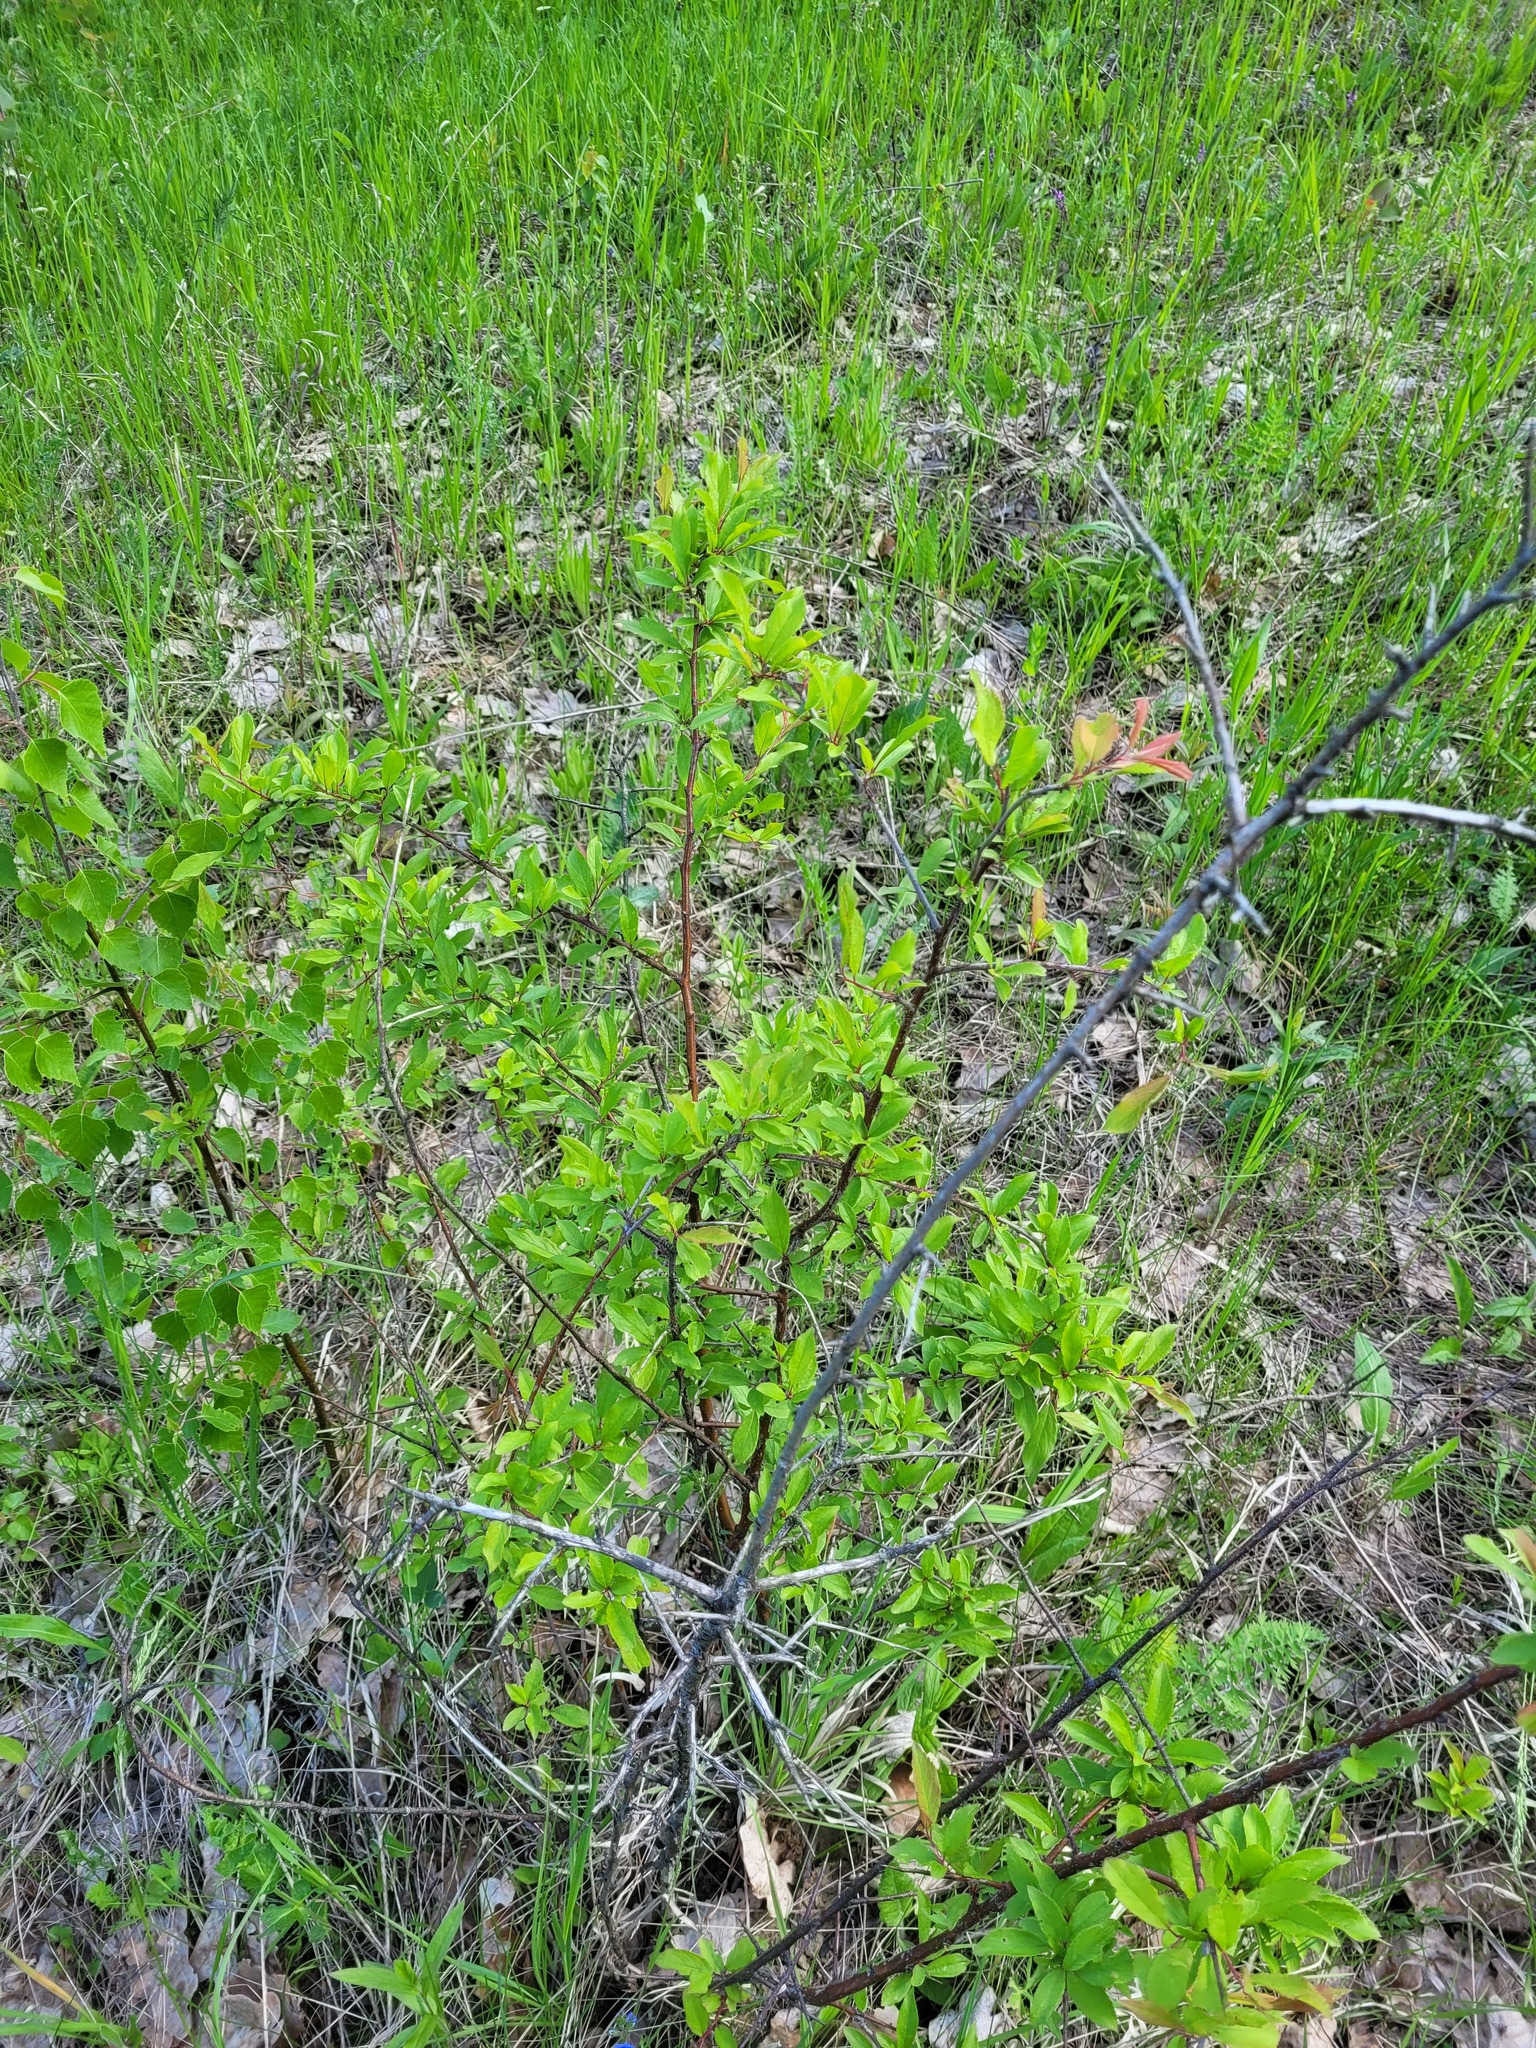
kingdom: Plantae
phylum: Tracheophyta
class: Magnoliopsida
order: Rosales
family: Rosaceae
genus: Prunus
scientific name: Prunus spinosa
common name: Blackthorn
